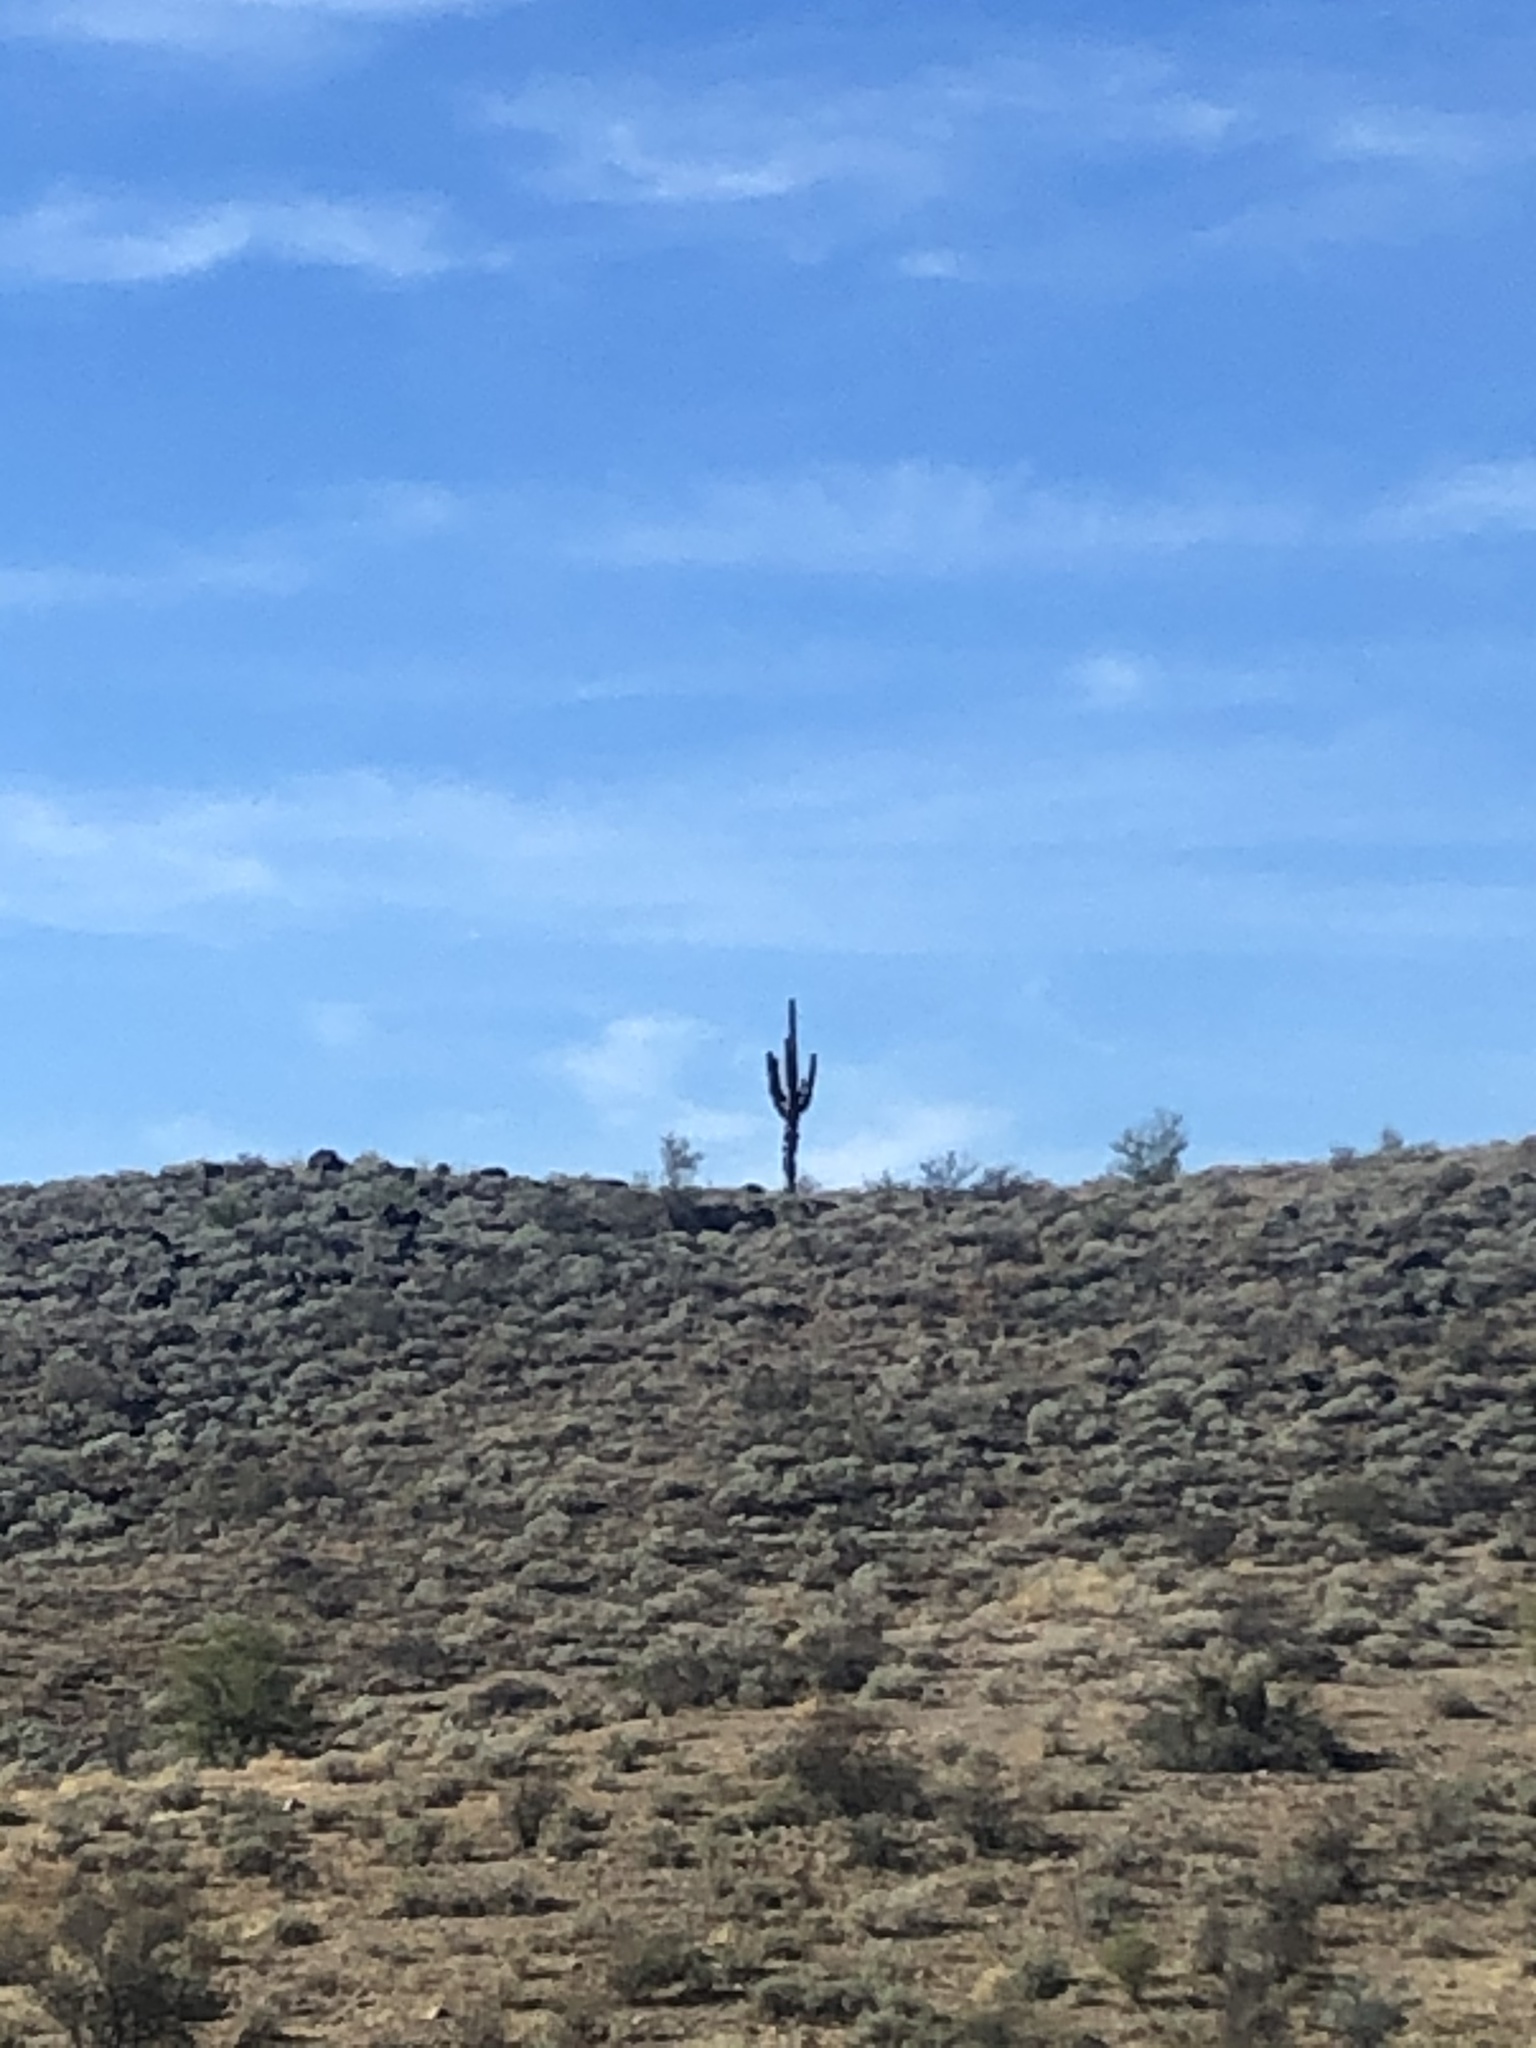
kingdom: Plantae
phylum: Tracheophyta
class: Magnoliopsida
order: Caryophyllales
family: Cactaceae
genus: Carnegiea
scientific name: Carnegiea gigantea
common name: Saguaro
